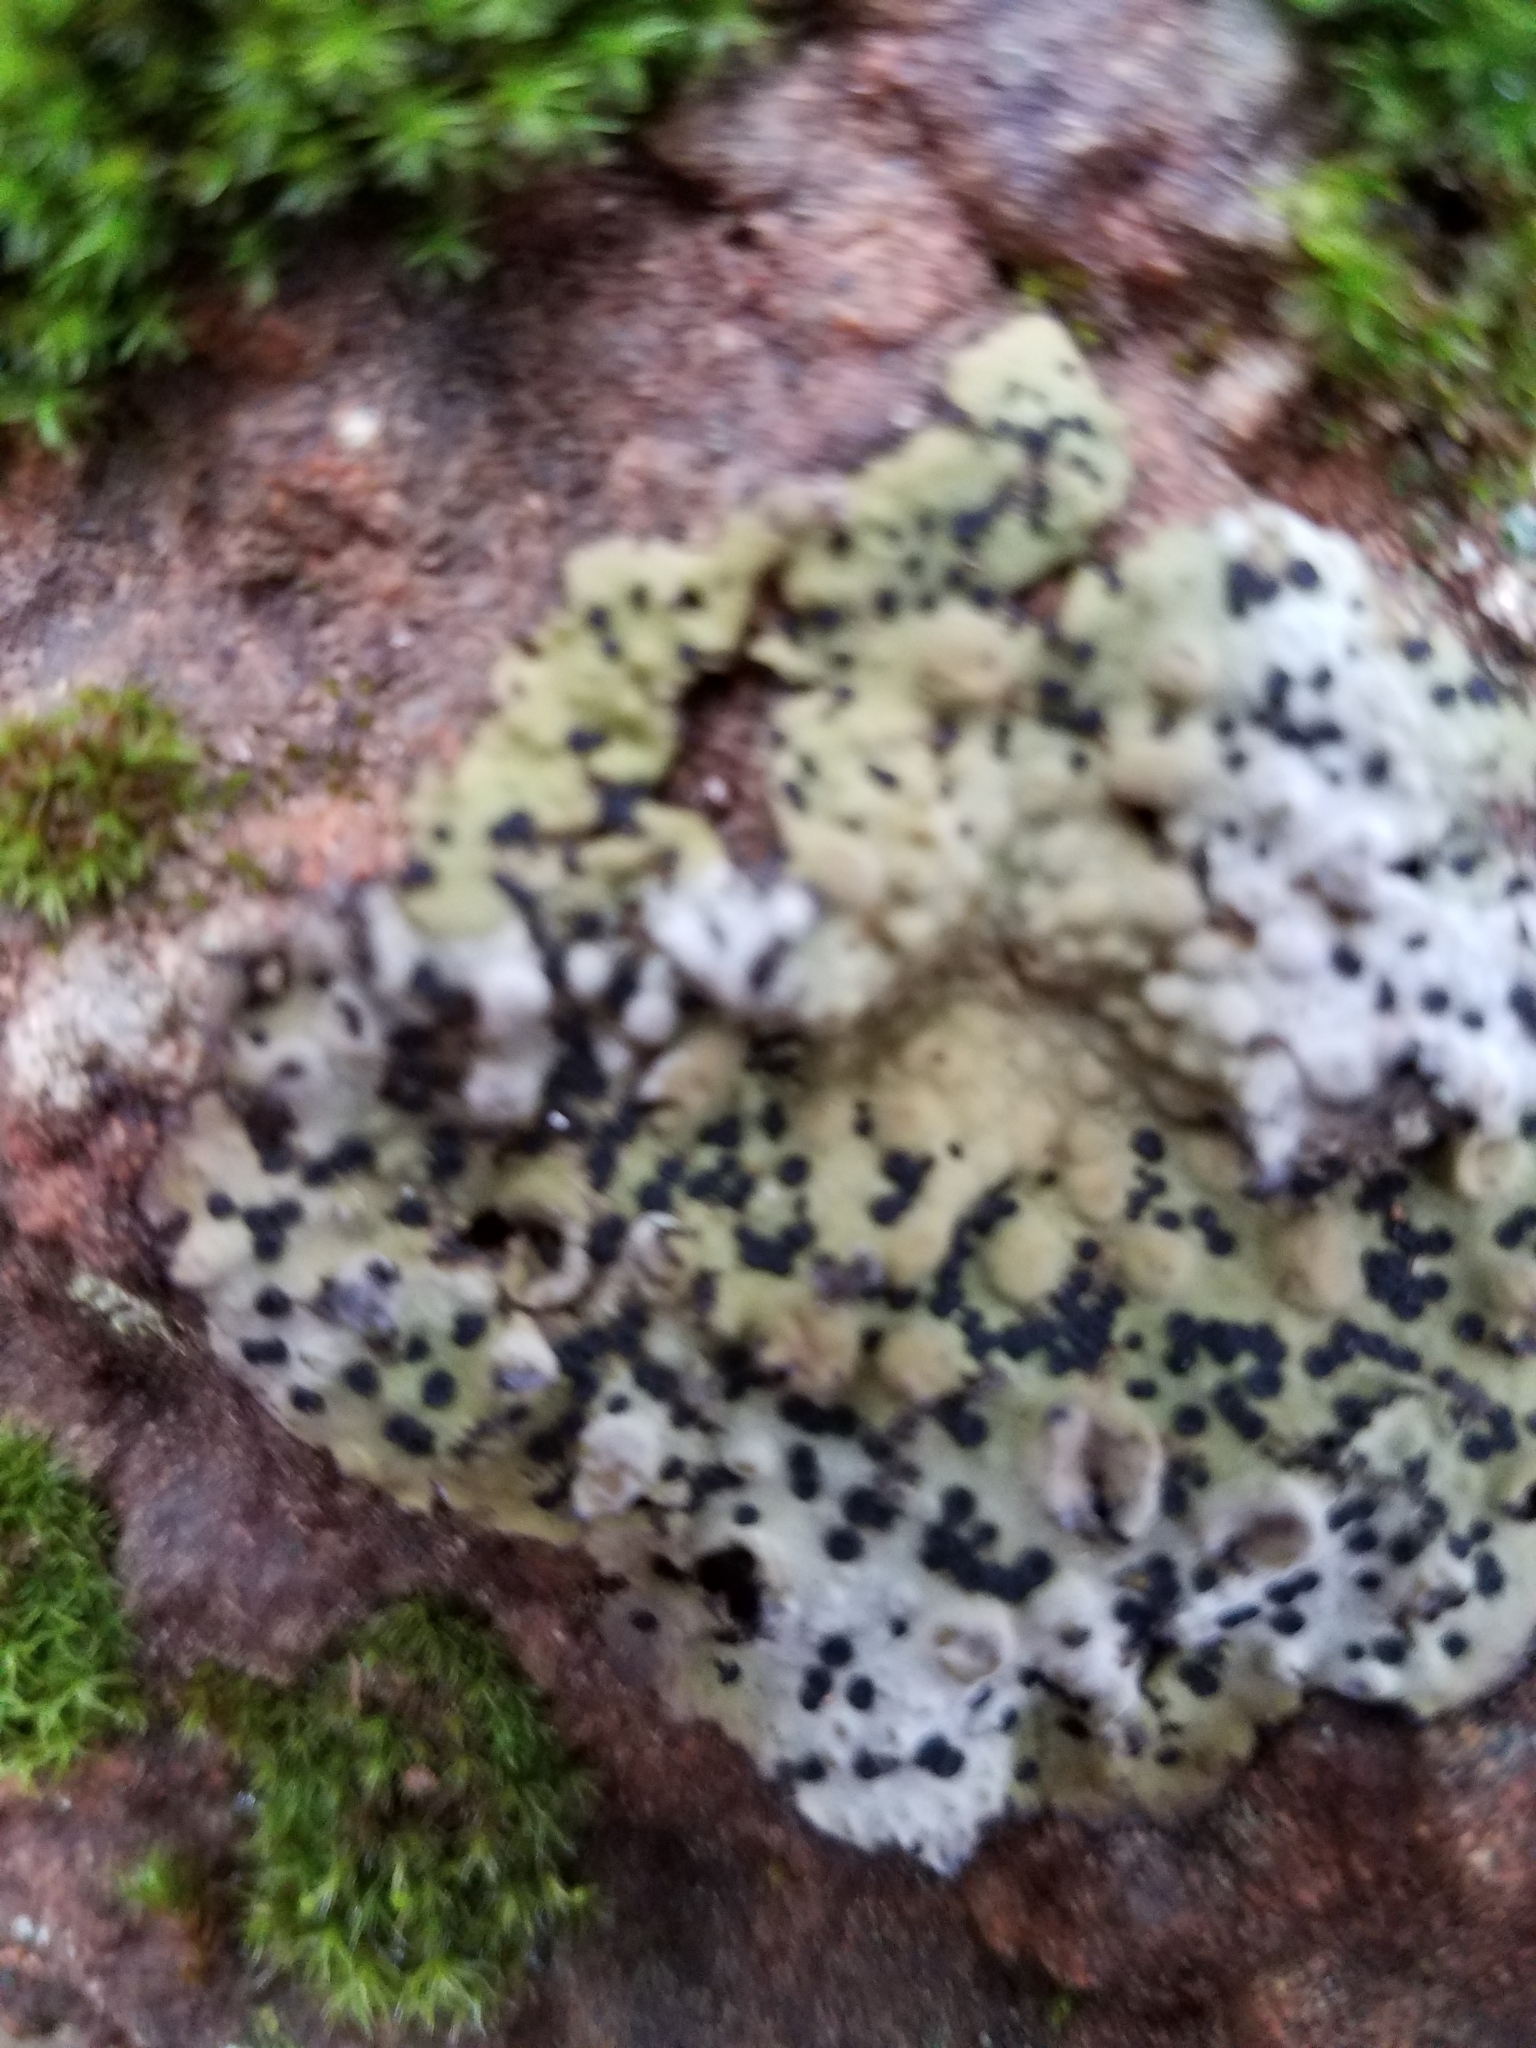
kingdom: Fungi
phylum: Ascomycota
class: Lecanoromycetes
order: Umbilicariales
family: Umbilicariaceae
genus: Lasallia
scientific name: Lasallia papulosa
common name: Common toadskin lichen
